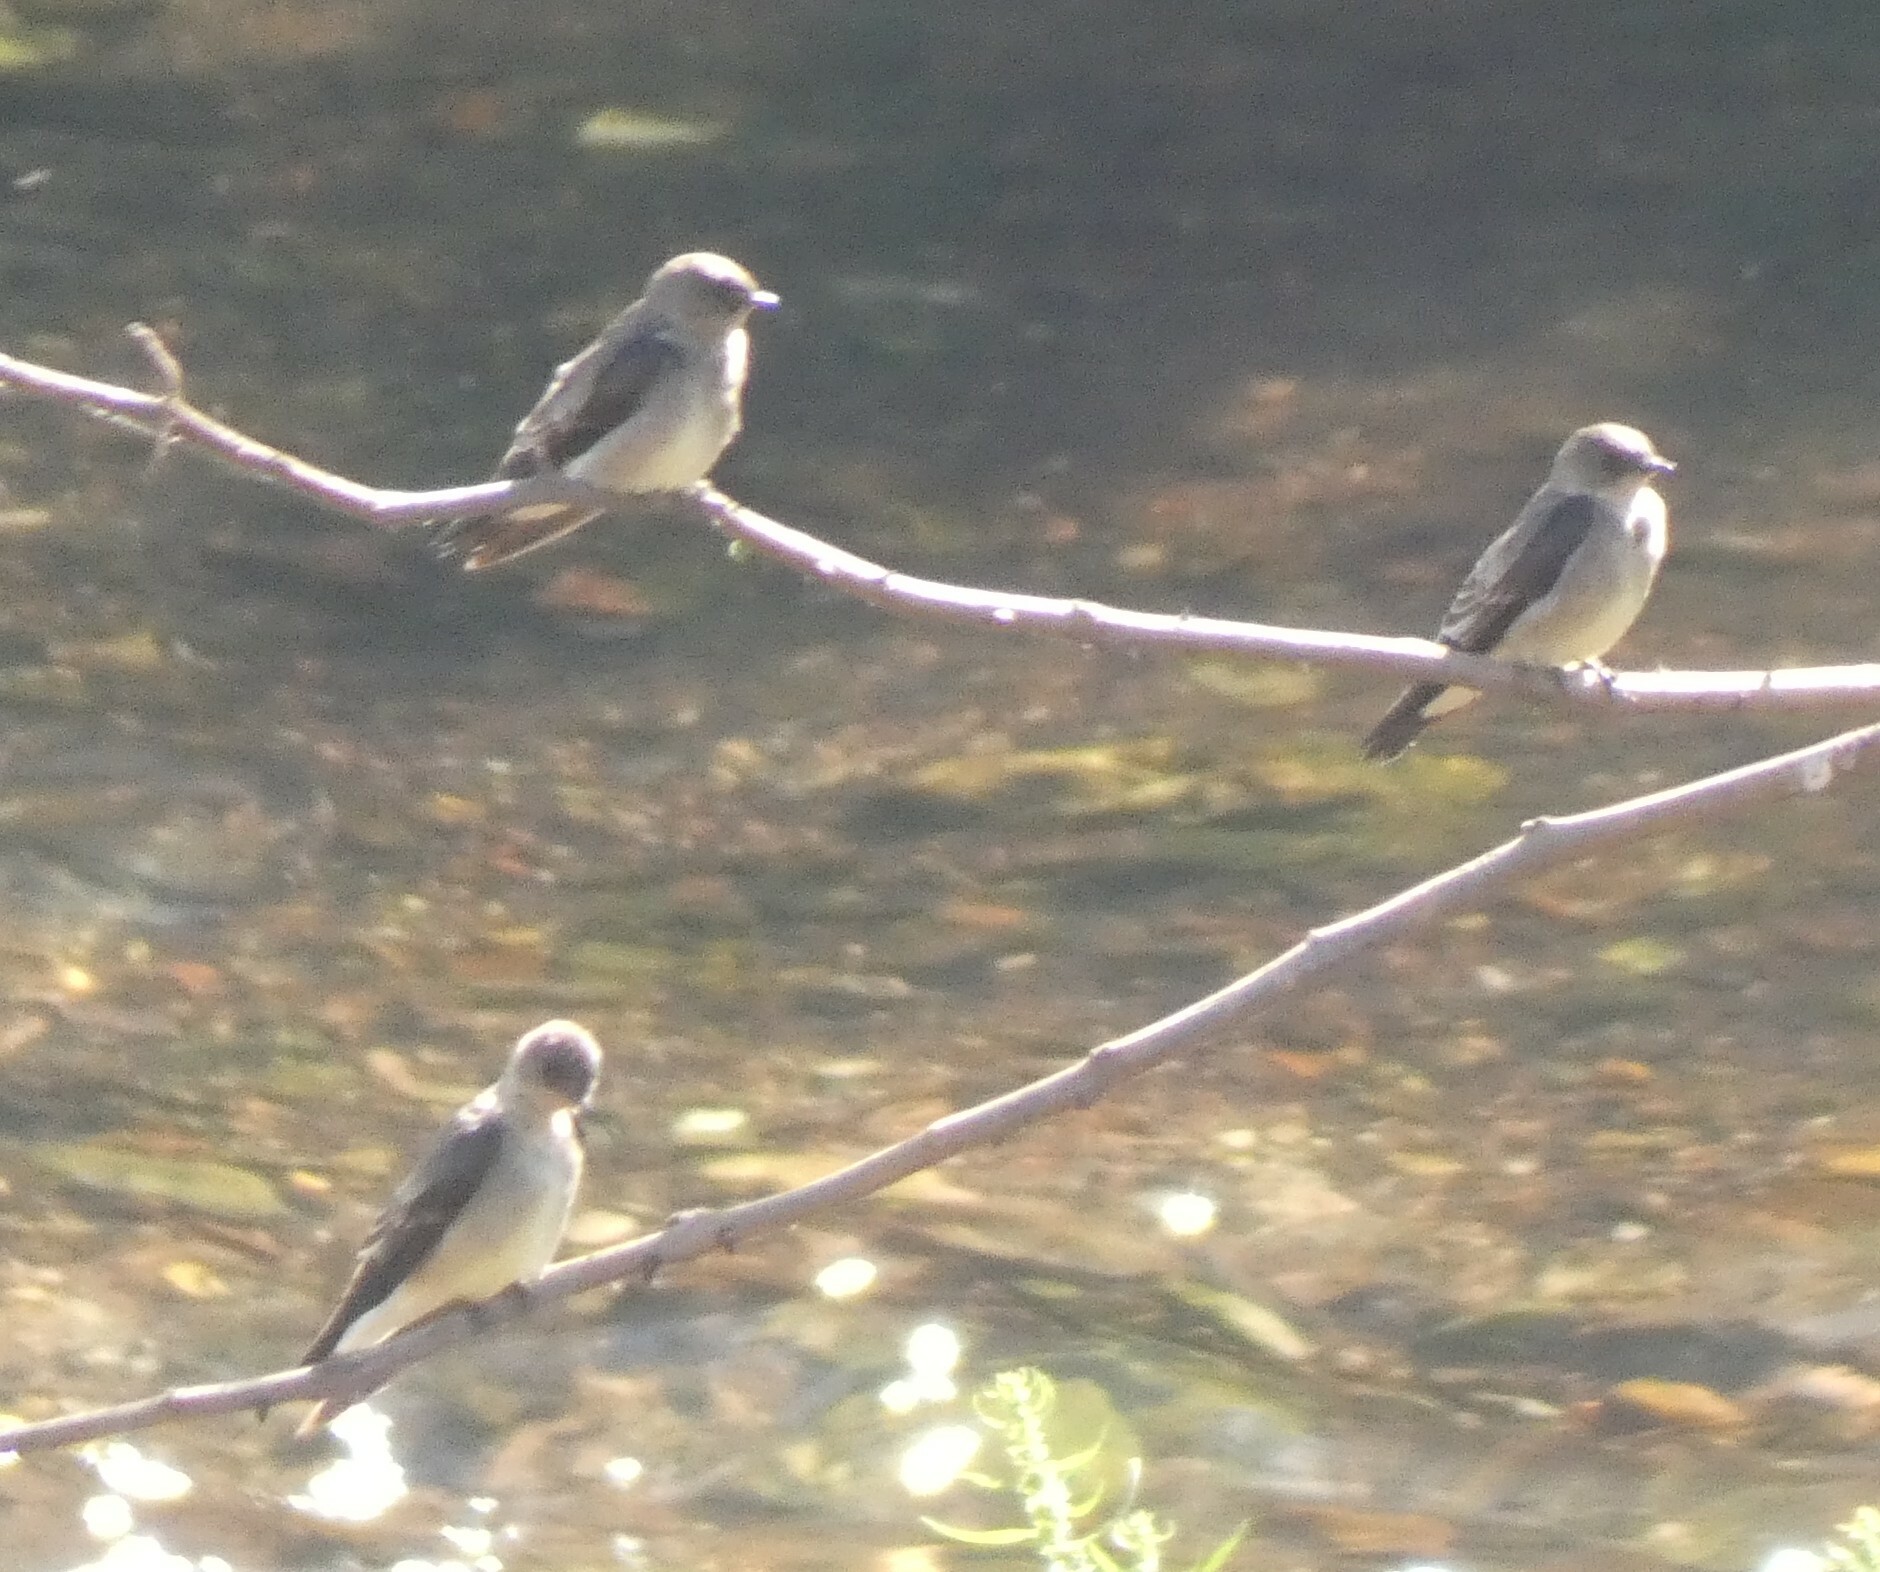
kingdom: Animalia
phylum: Chordata
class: Aves
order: Passeriformes
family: Hirundinidae
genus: Stelgidopteryx
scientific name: Stelgidopteryx ruficollis
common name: Southern rough-winged swallow
